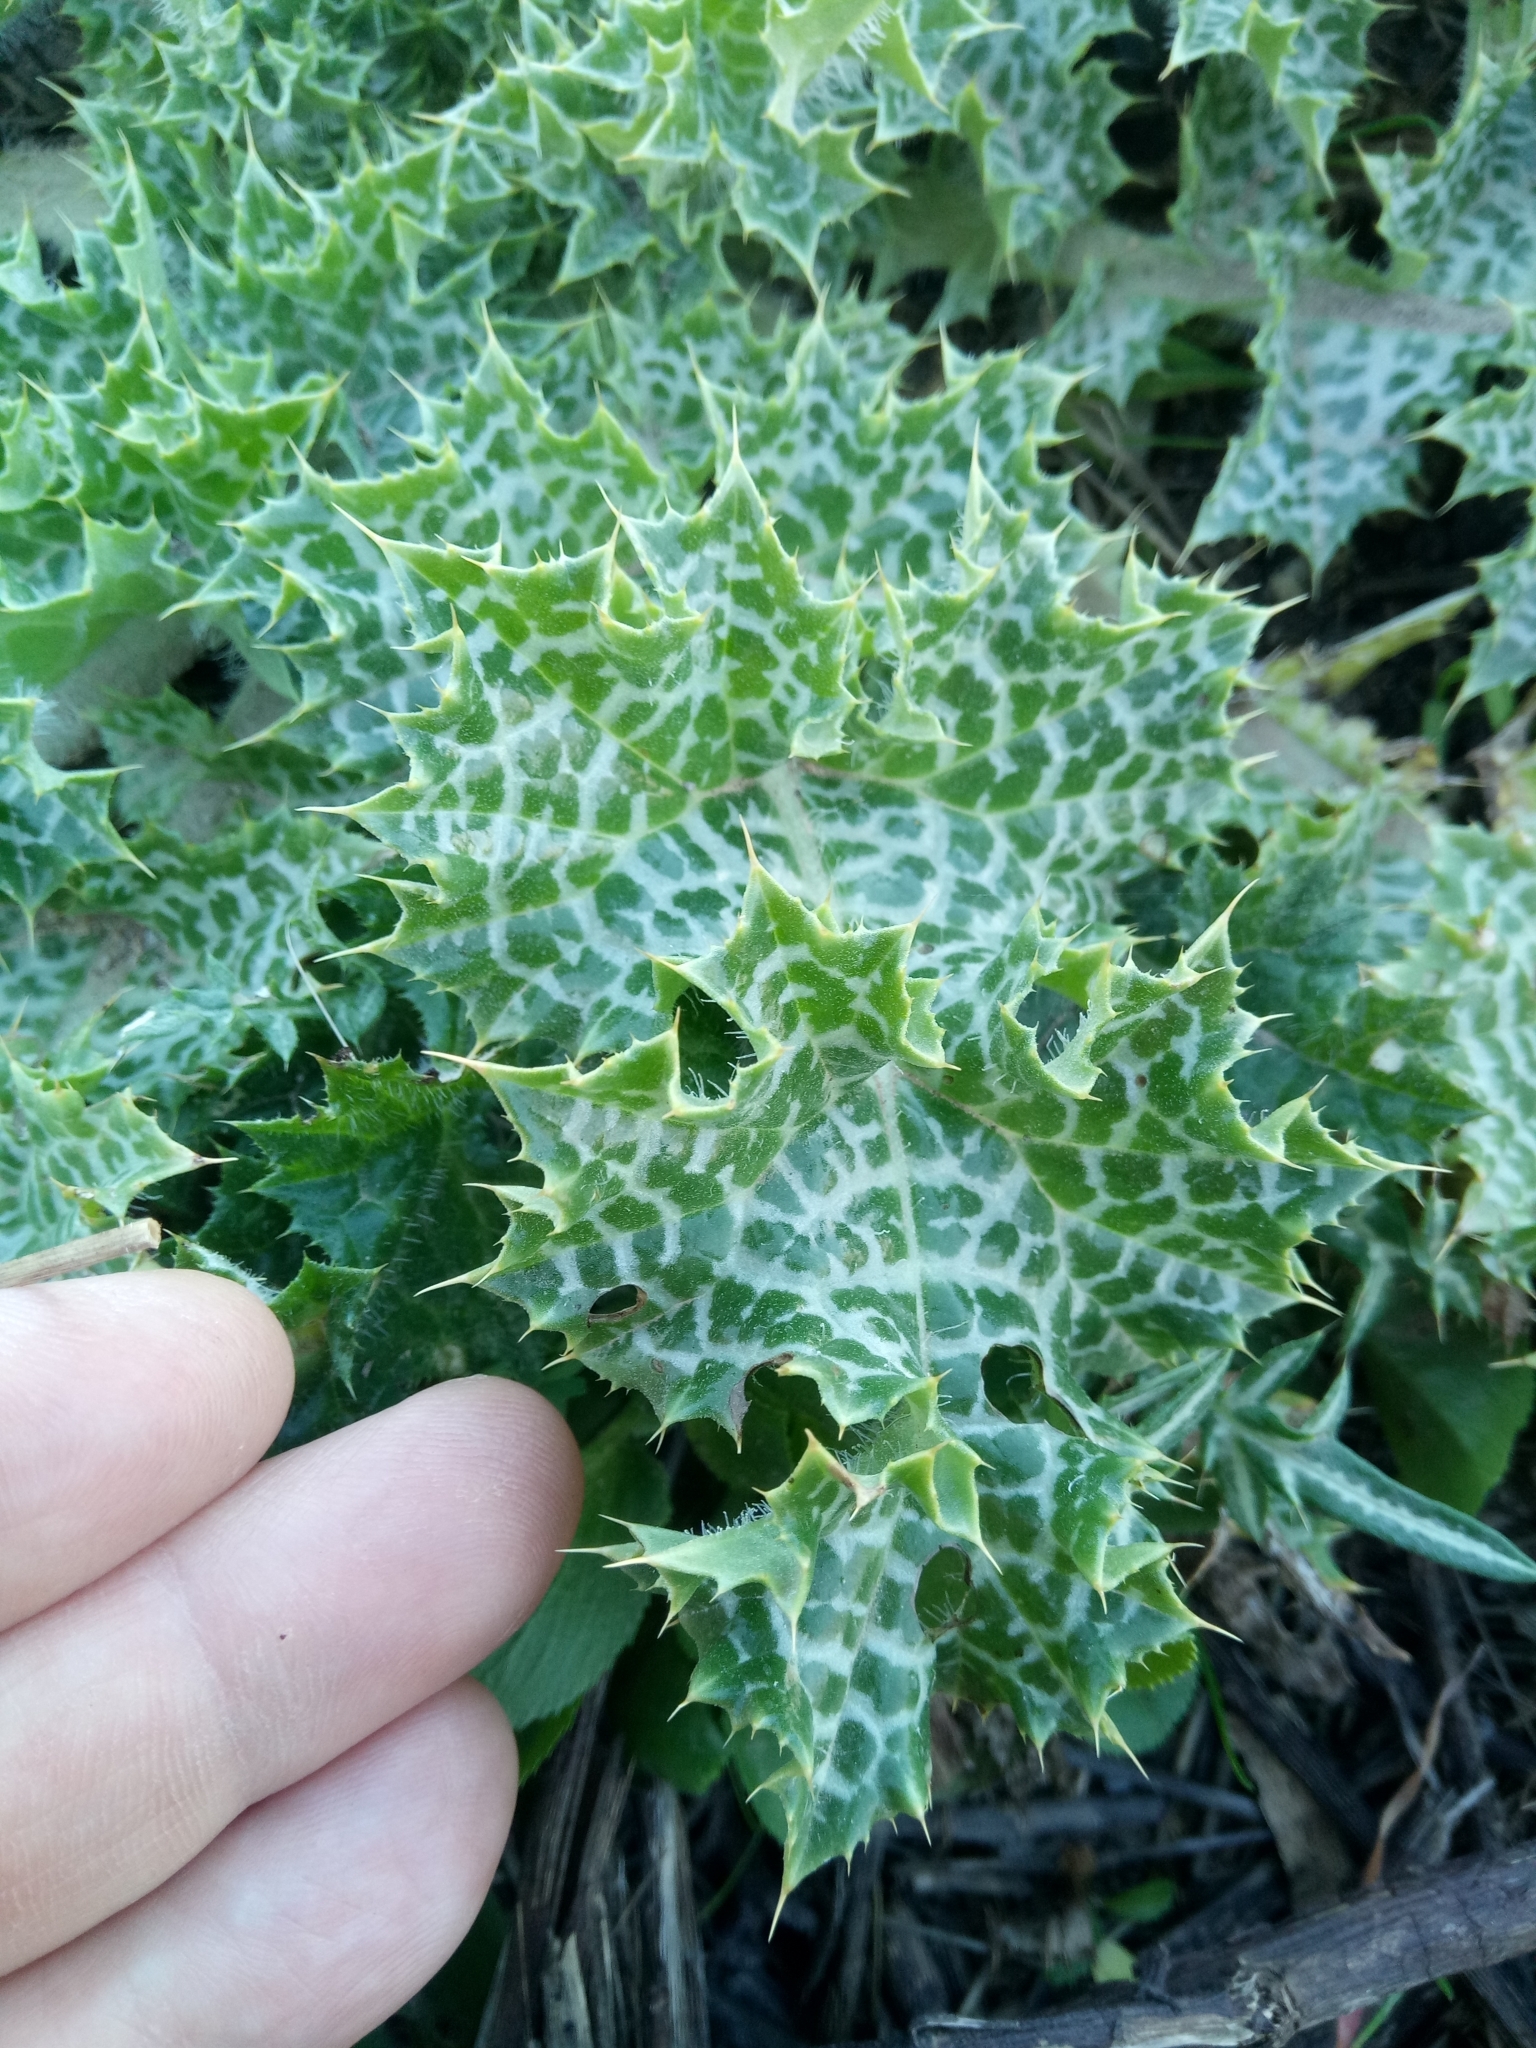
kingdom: Plantae
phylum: Tracheophyta
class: Magnoliopsida
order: Asterales
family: Asteraceae
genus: Silybum
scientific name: Silybum marianum
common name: Milk thistle
